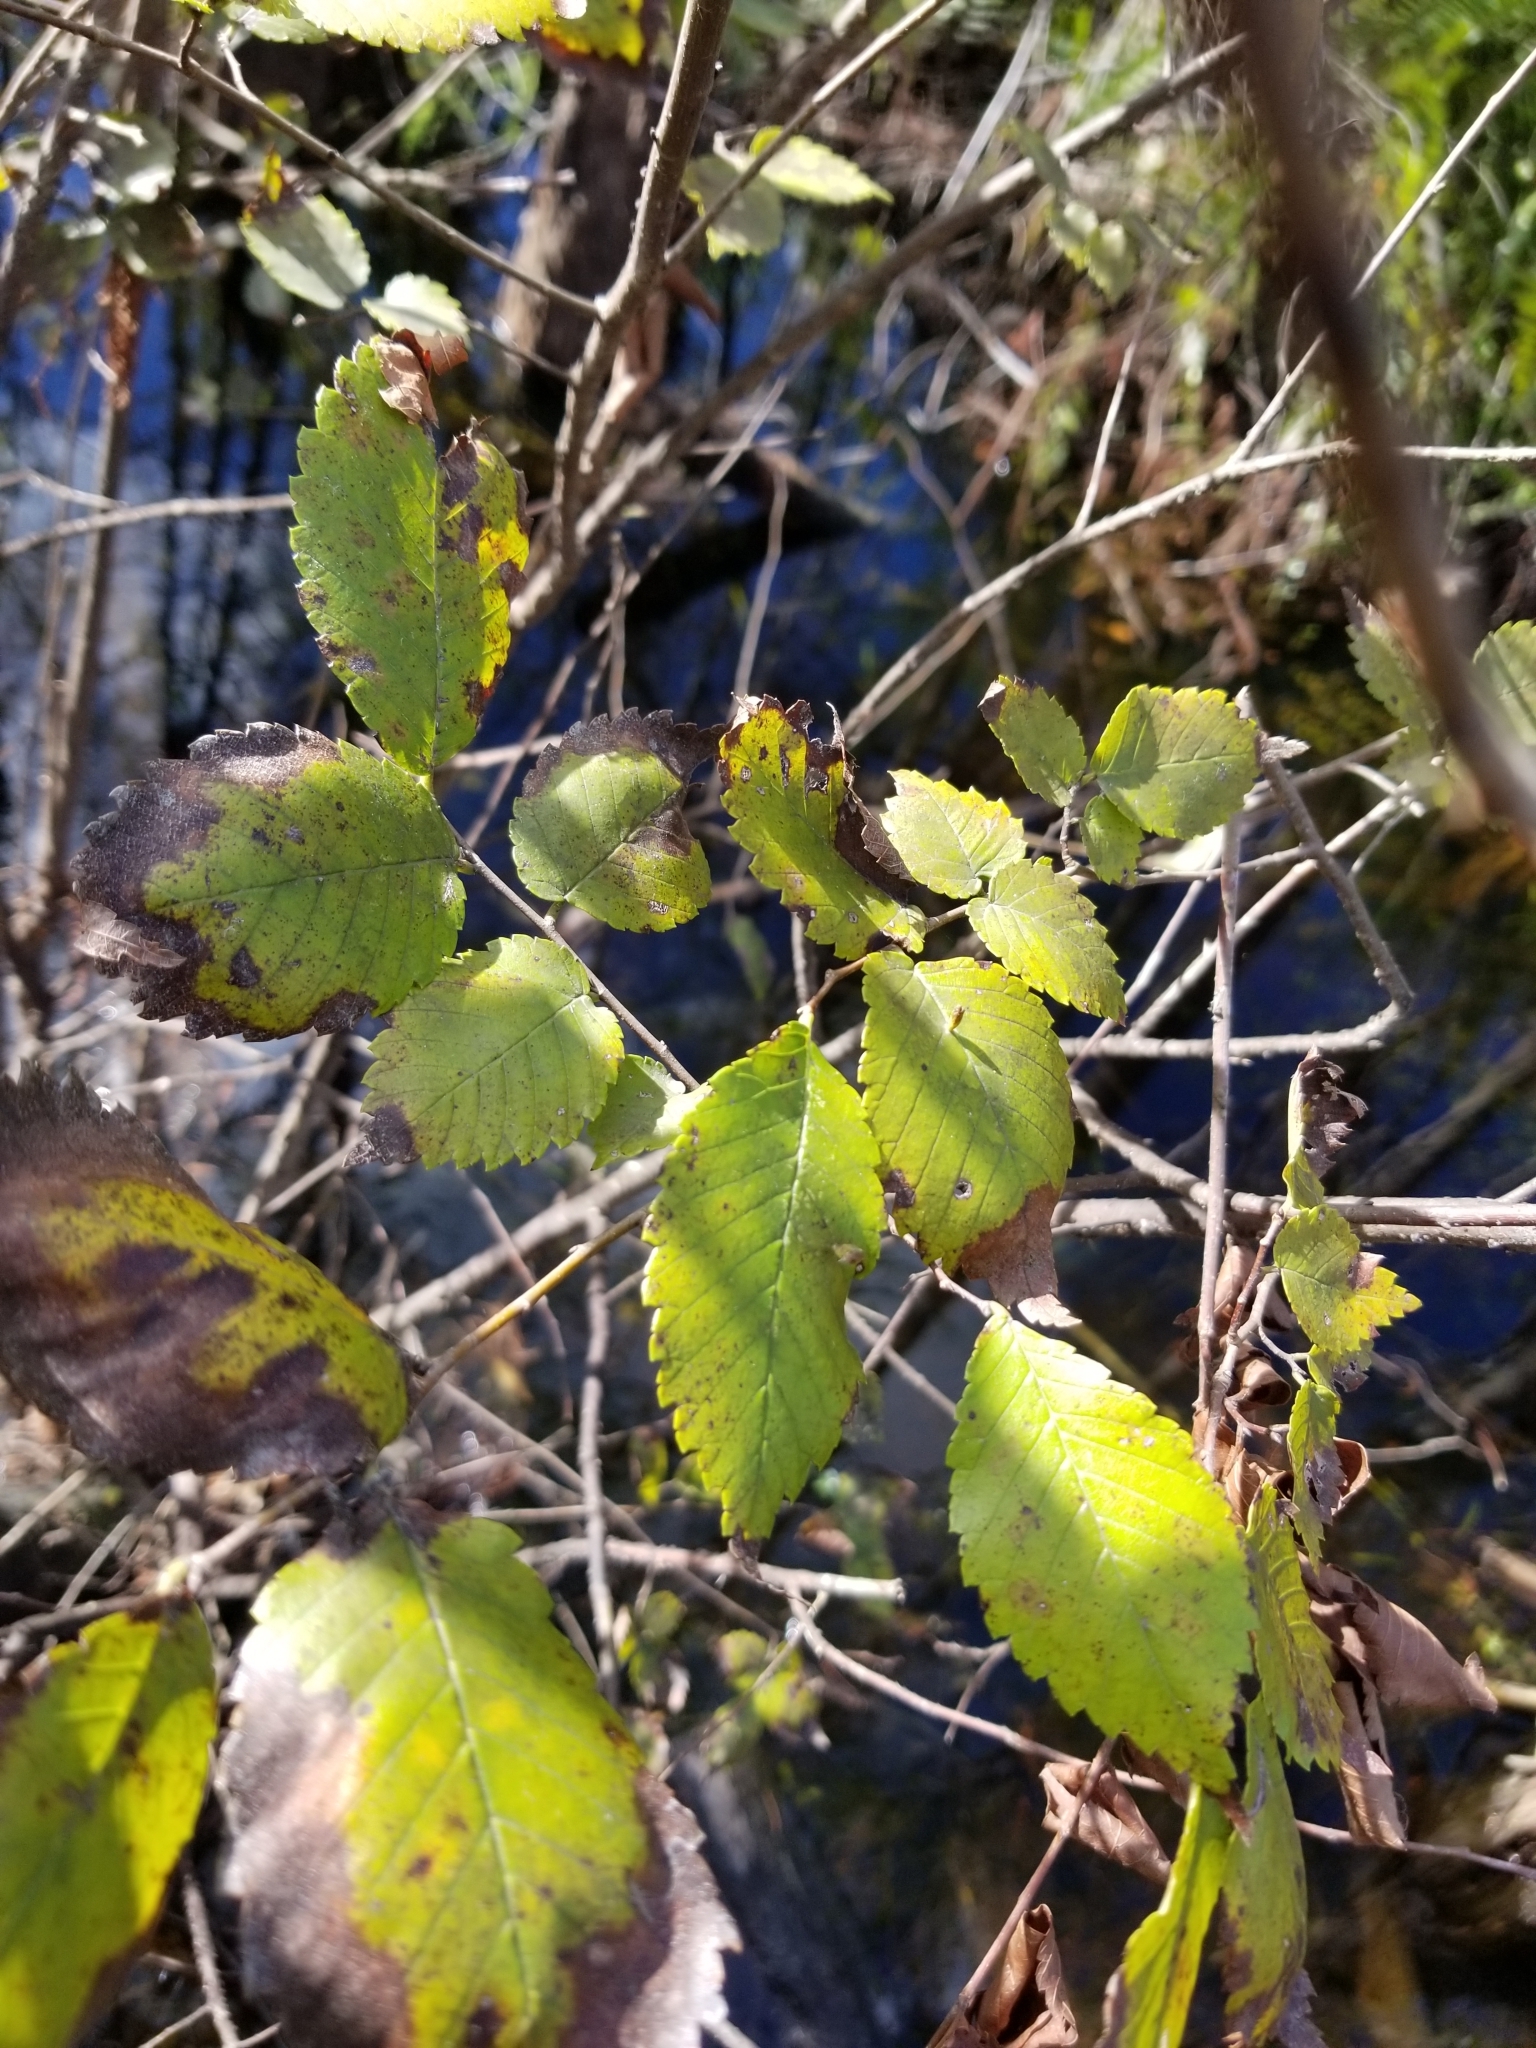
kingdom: Plantae
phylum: Tracheophyta
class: Magnoliopsida
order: Rosales
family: Ulmaceae
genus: Ulmus
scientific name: Ulmus americana
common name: American elm
